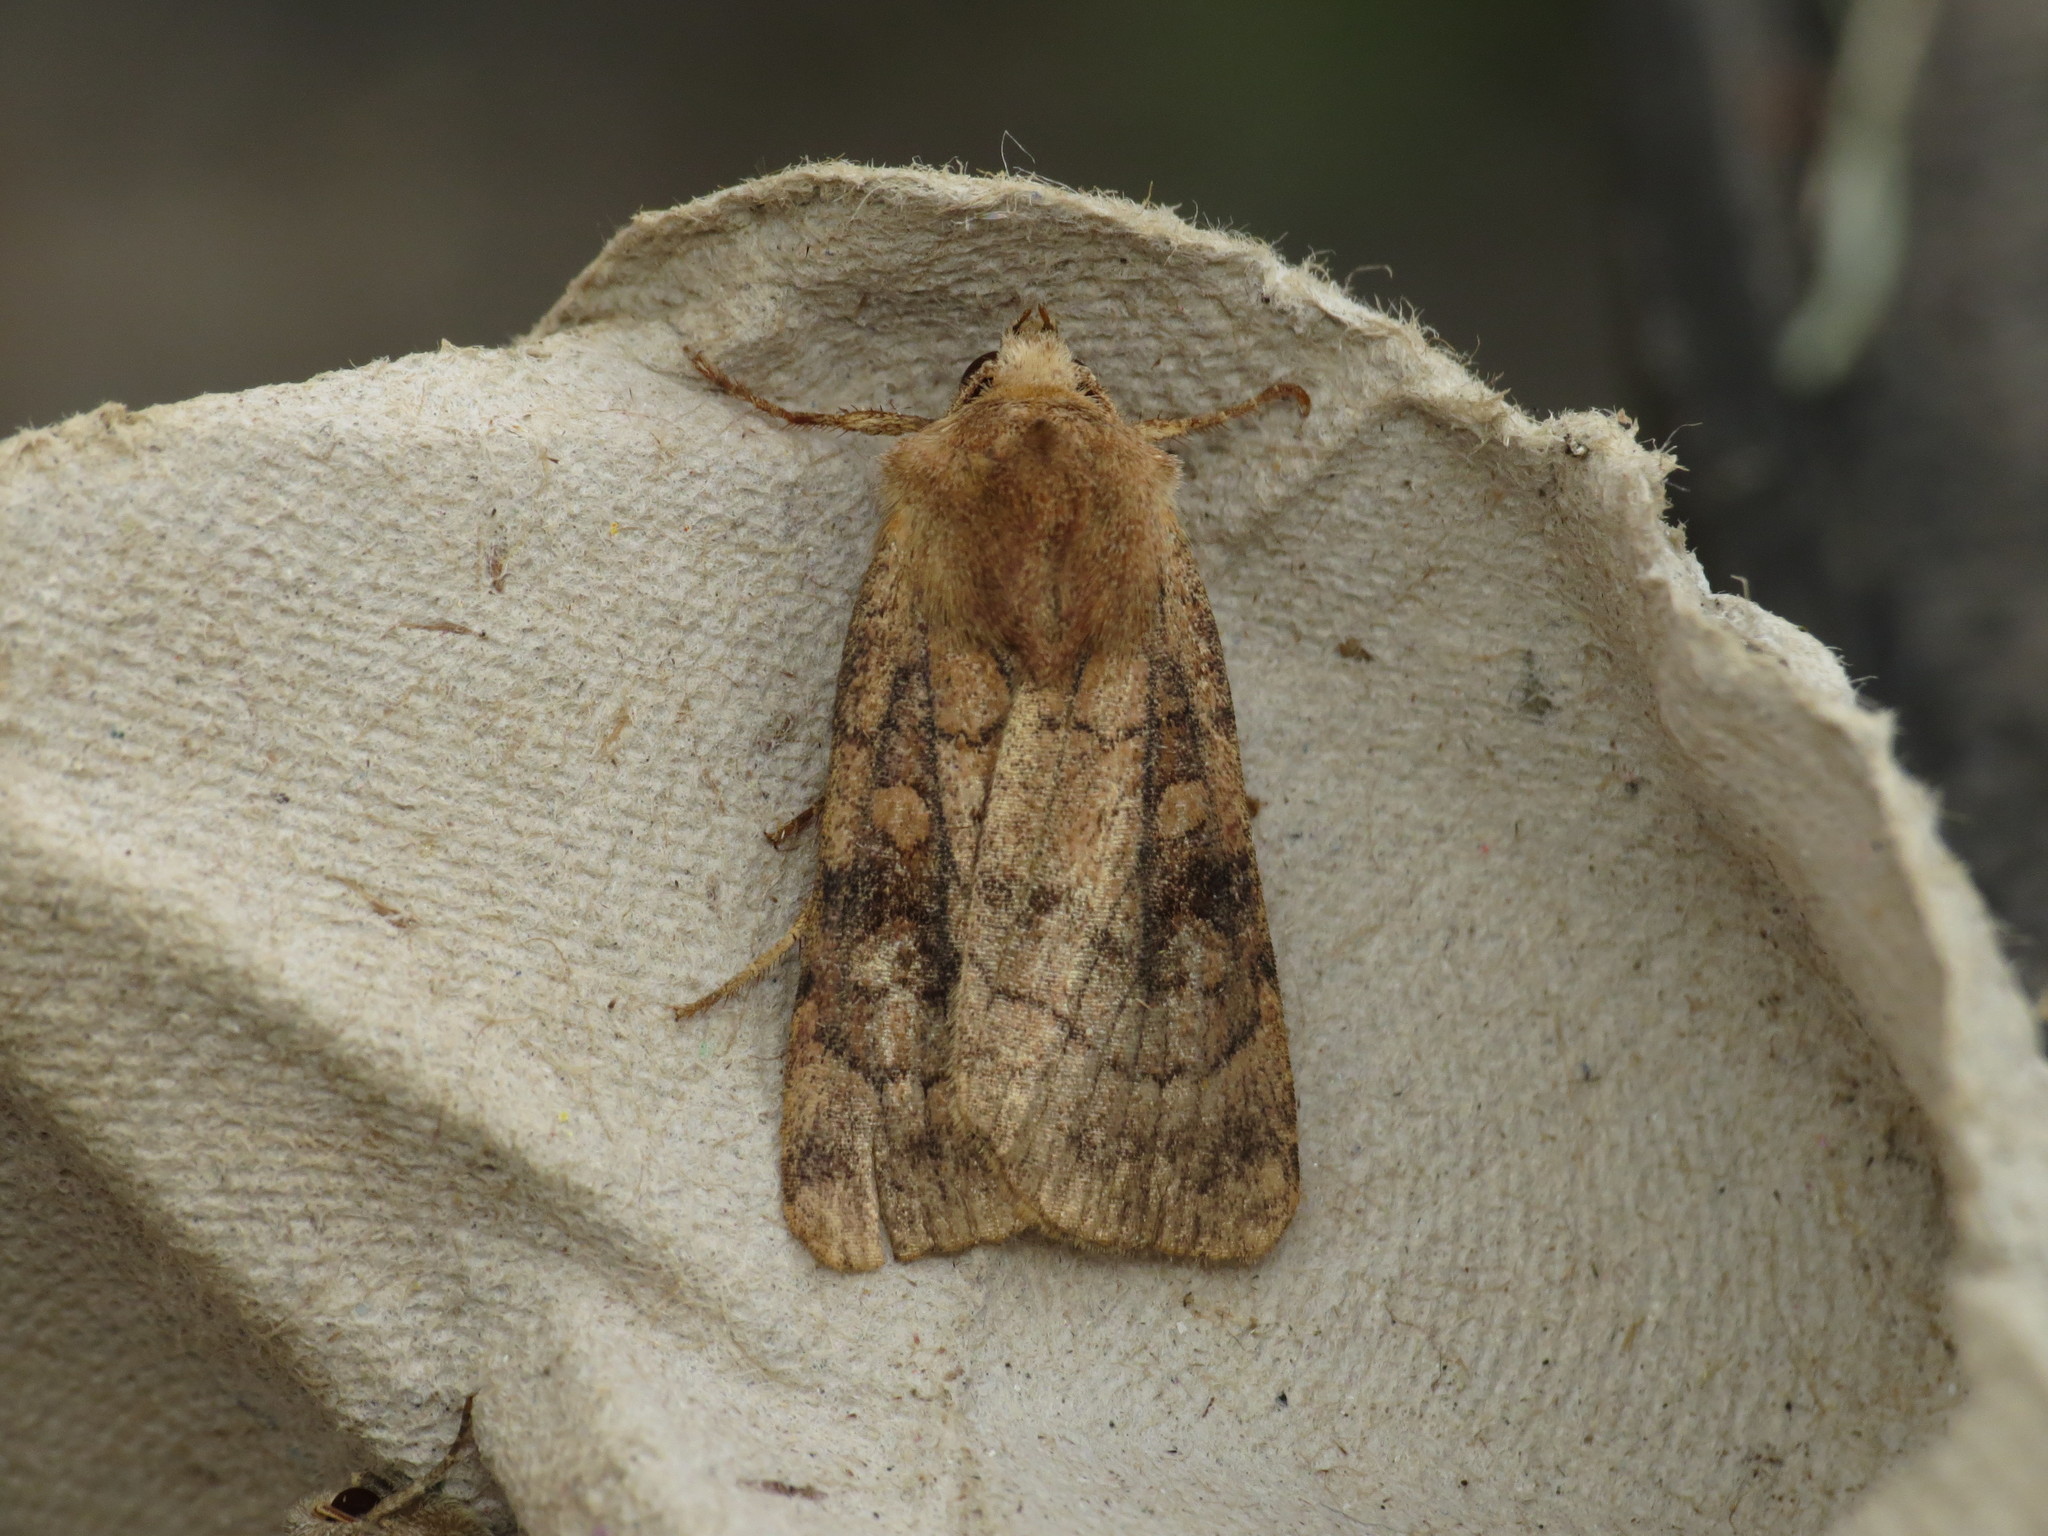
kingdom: Animalia
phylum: Arthropoda
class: Insecta
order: Lepidoptera
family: Noctuidae
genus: Xestia
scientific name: Xestia sexstrigata
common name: Six-striped rustic
